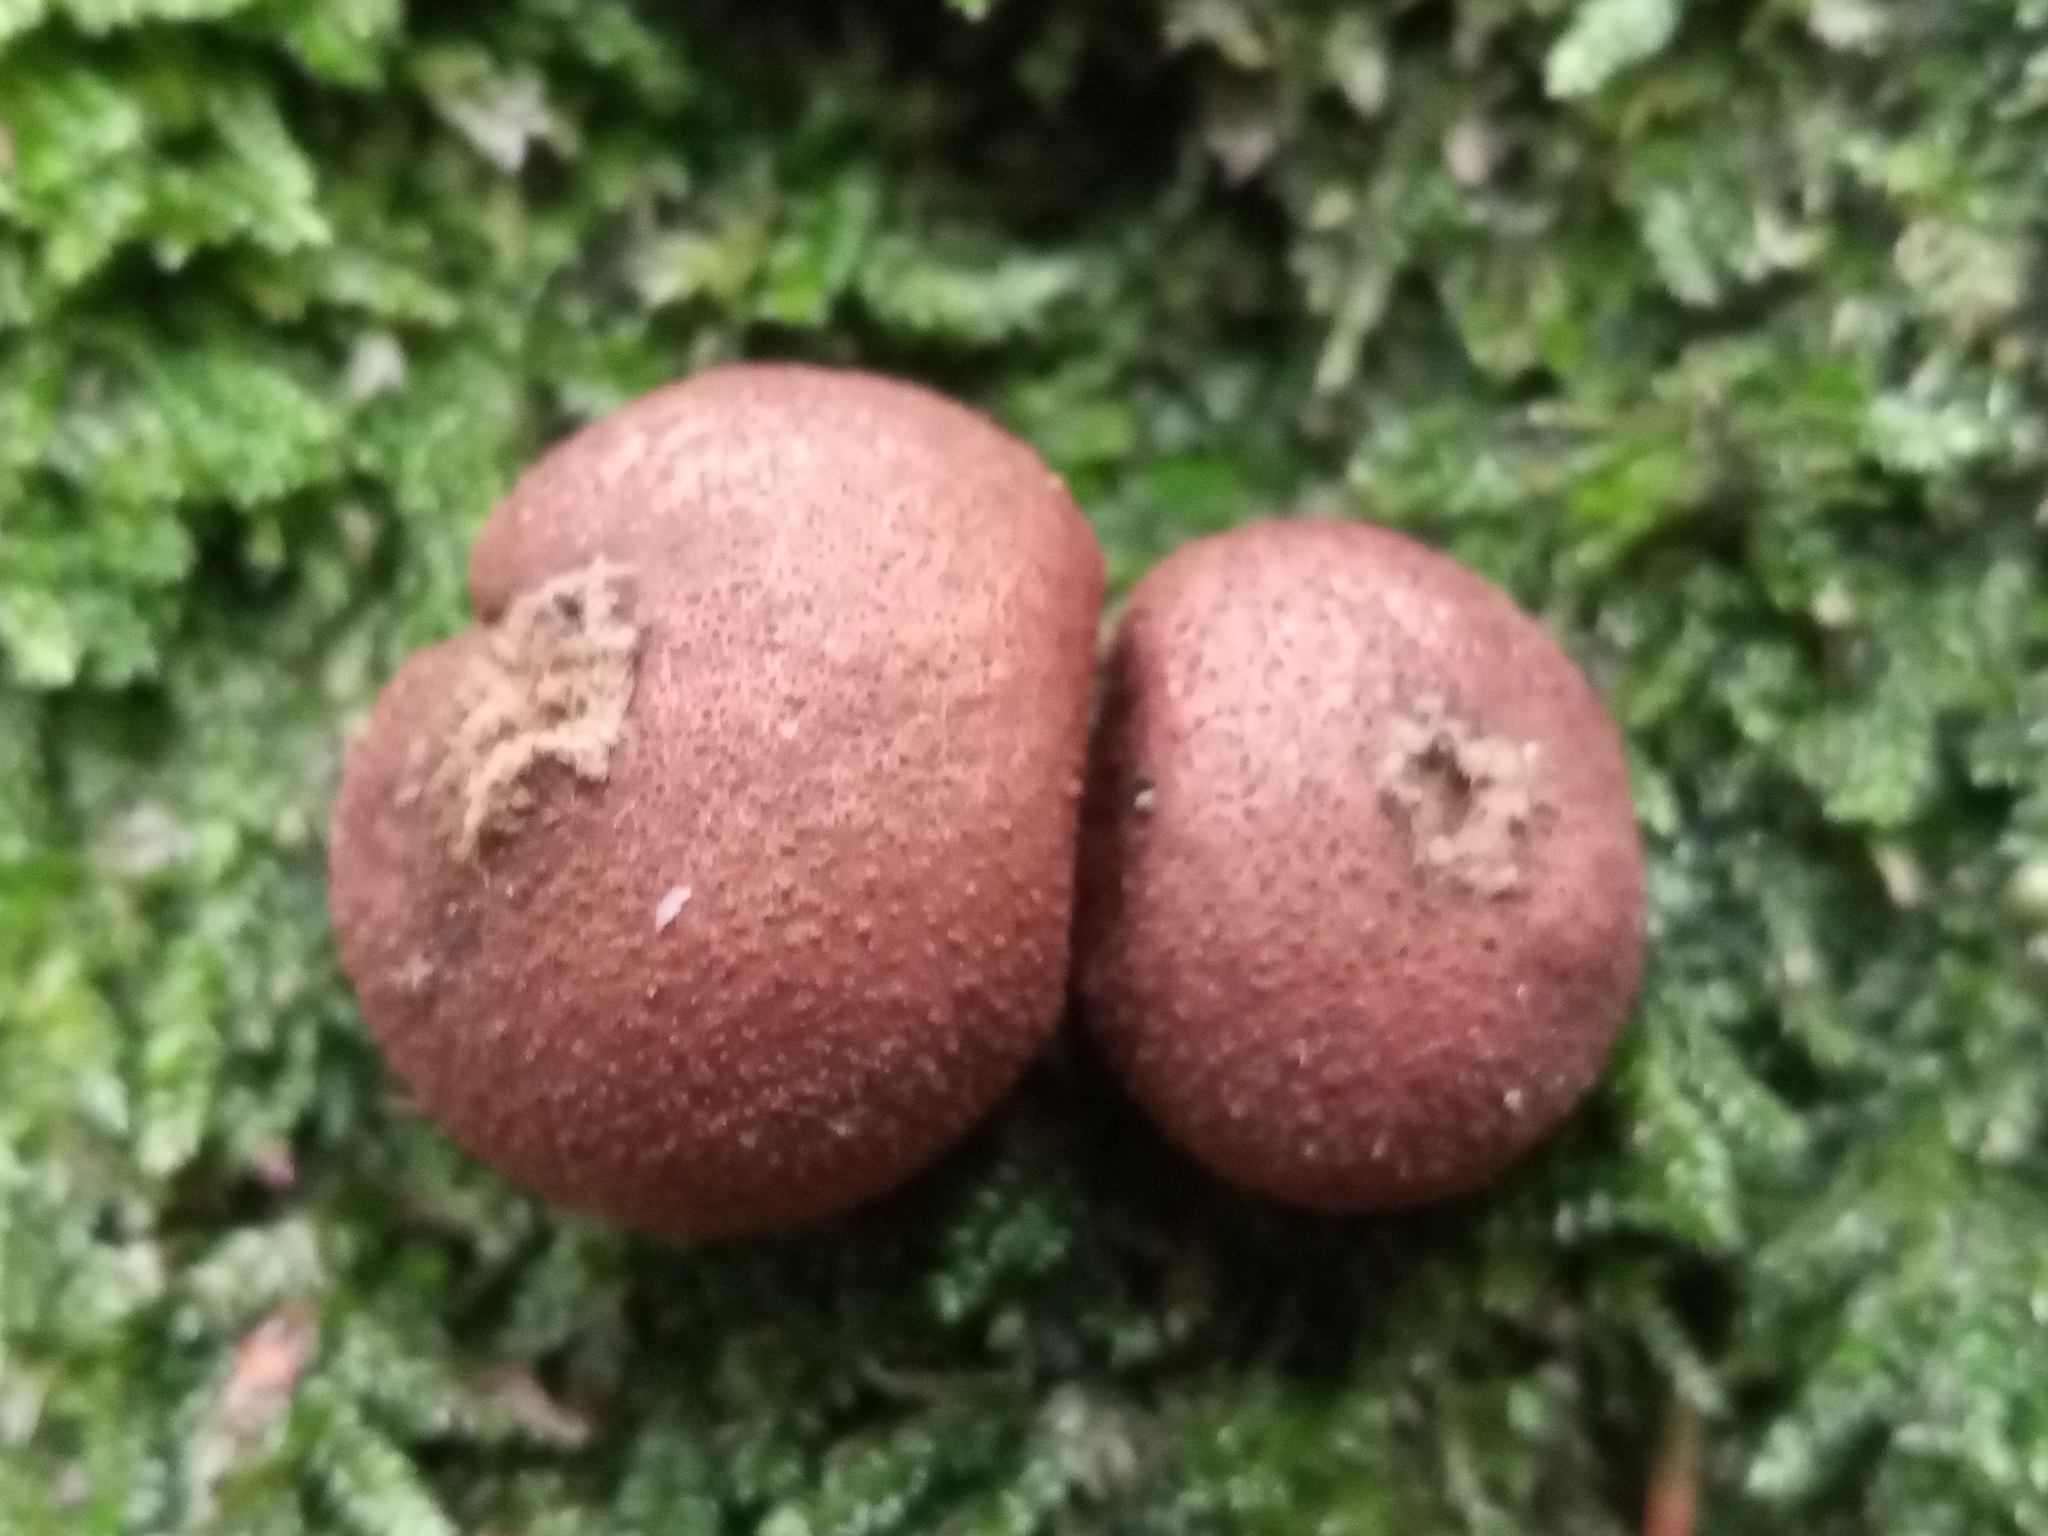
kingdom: Fungi
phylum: Basidiomycota
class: Agaricomycetes
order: Agaricales
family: Lycoperdaceae
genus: Apioperdon
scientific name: Apioperdon pyriforme
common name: Pear-shaped puffball
